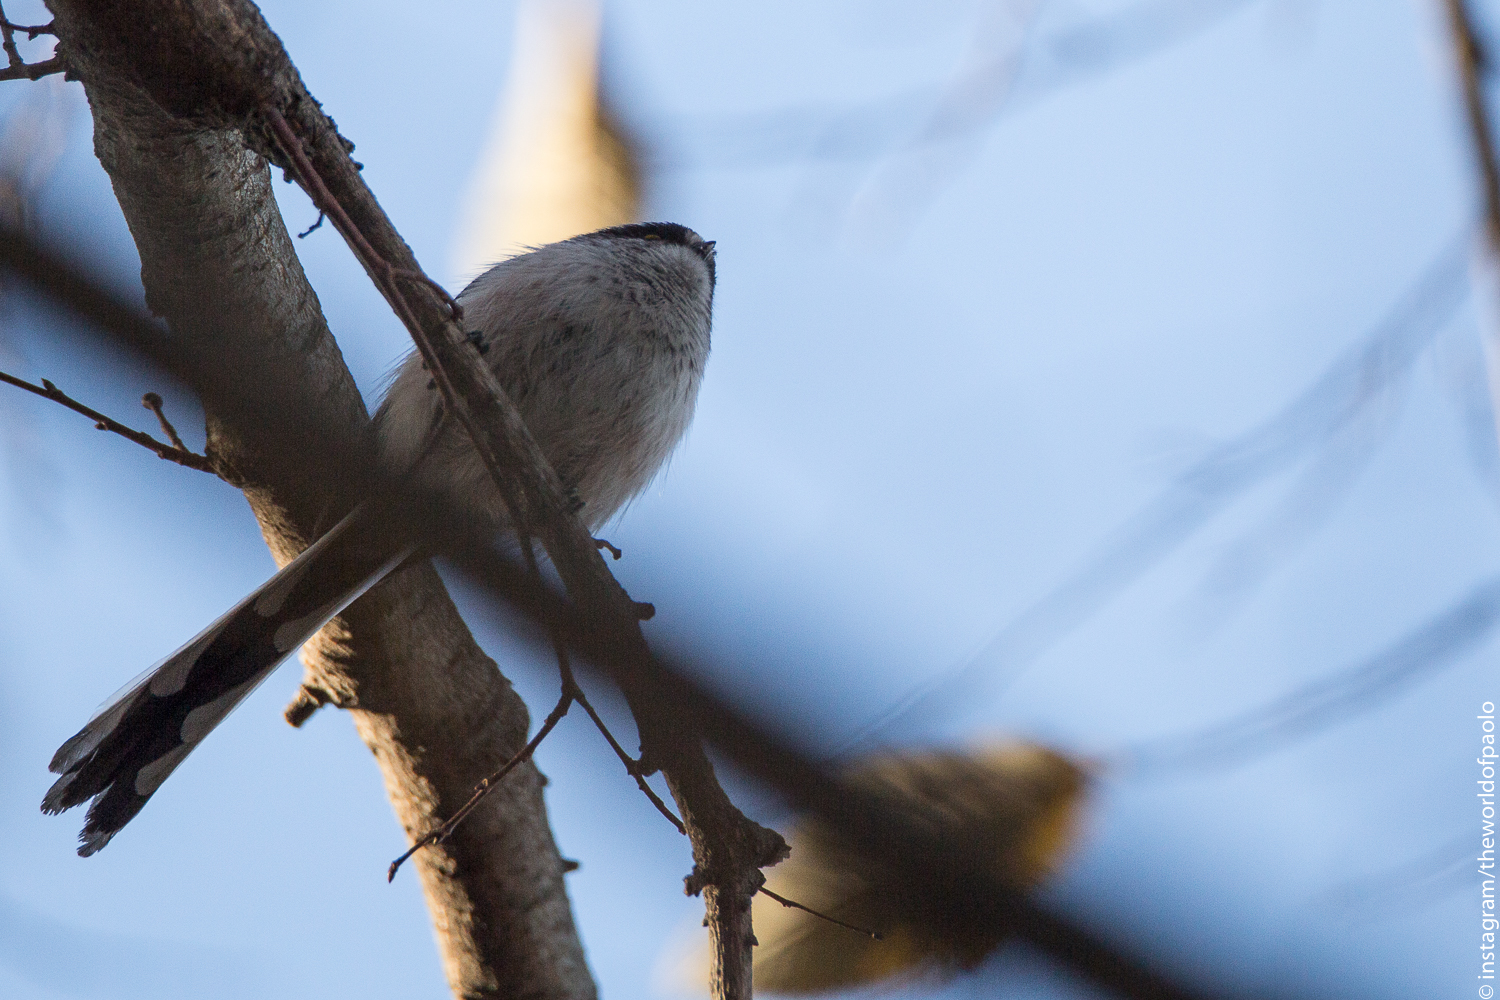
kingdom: Animalia
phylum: Chordata
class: Aves
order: Passeriformes
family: Aegithalidae
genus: Aegithalos
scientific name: Aegithalos caudatus
